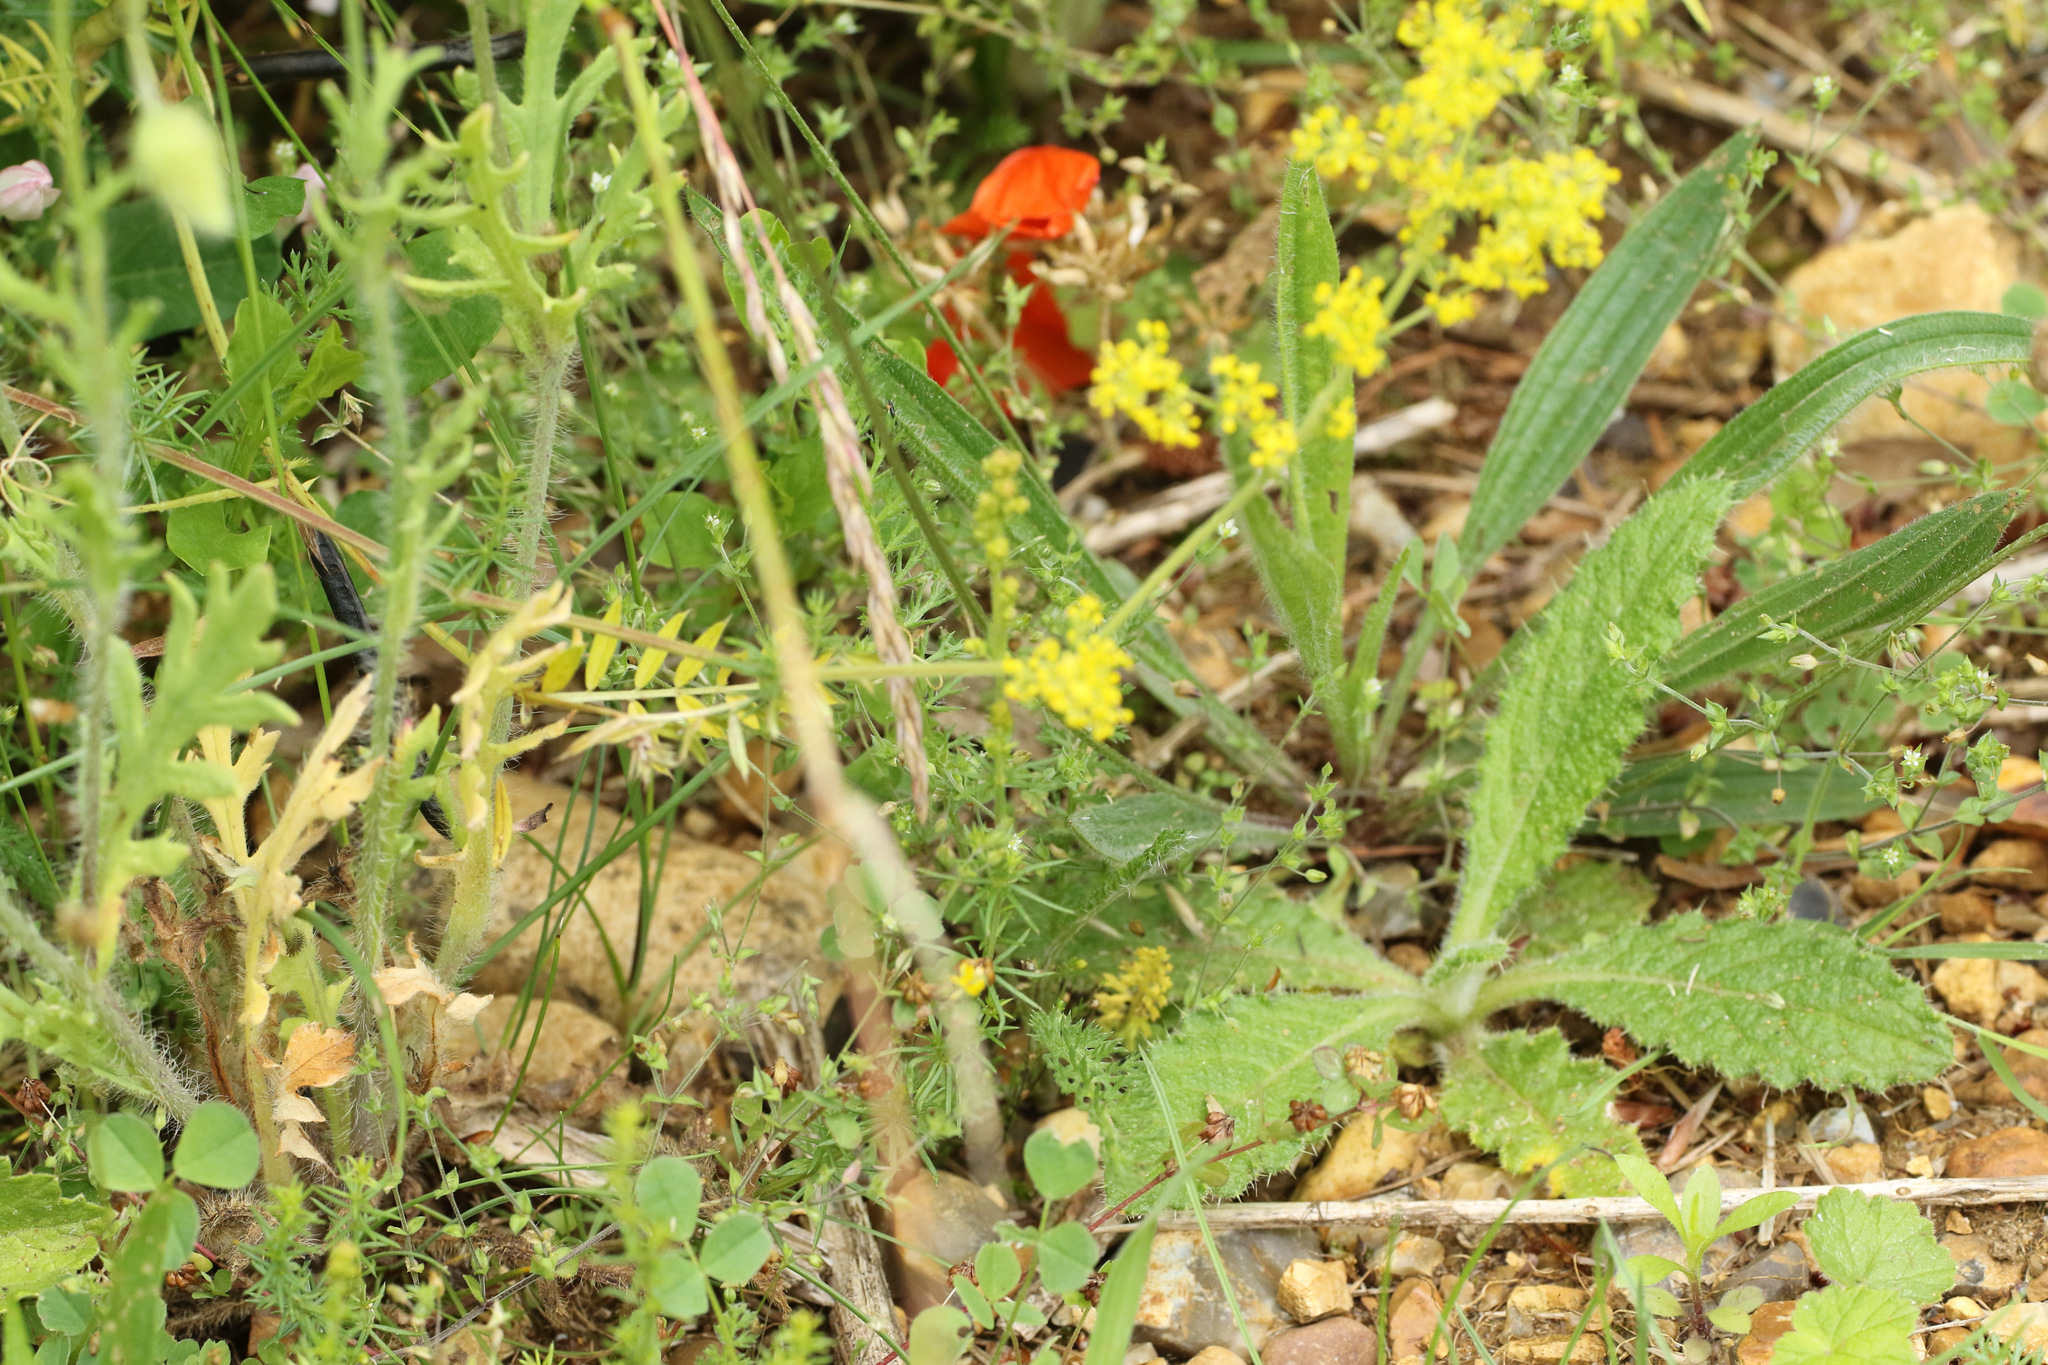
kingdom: Plantae
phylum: Tracheophyta
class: Magnoliopsida
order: Gentianales
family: Rubiaceae
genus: Galium
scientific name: Galium verum
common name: Lady's bedstraw
